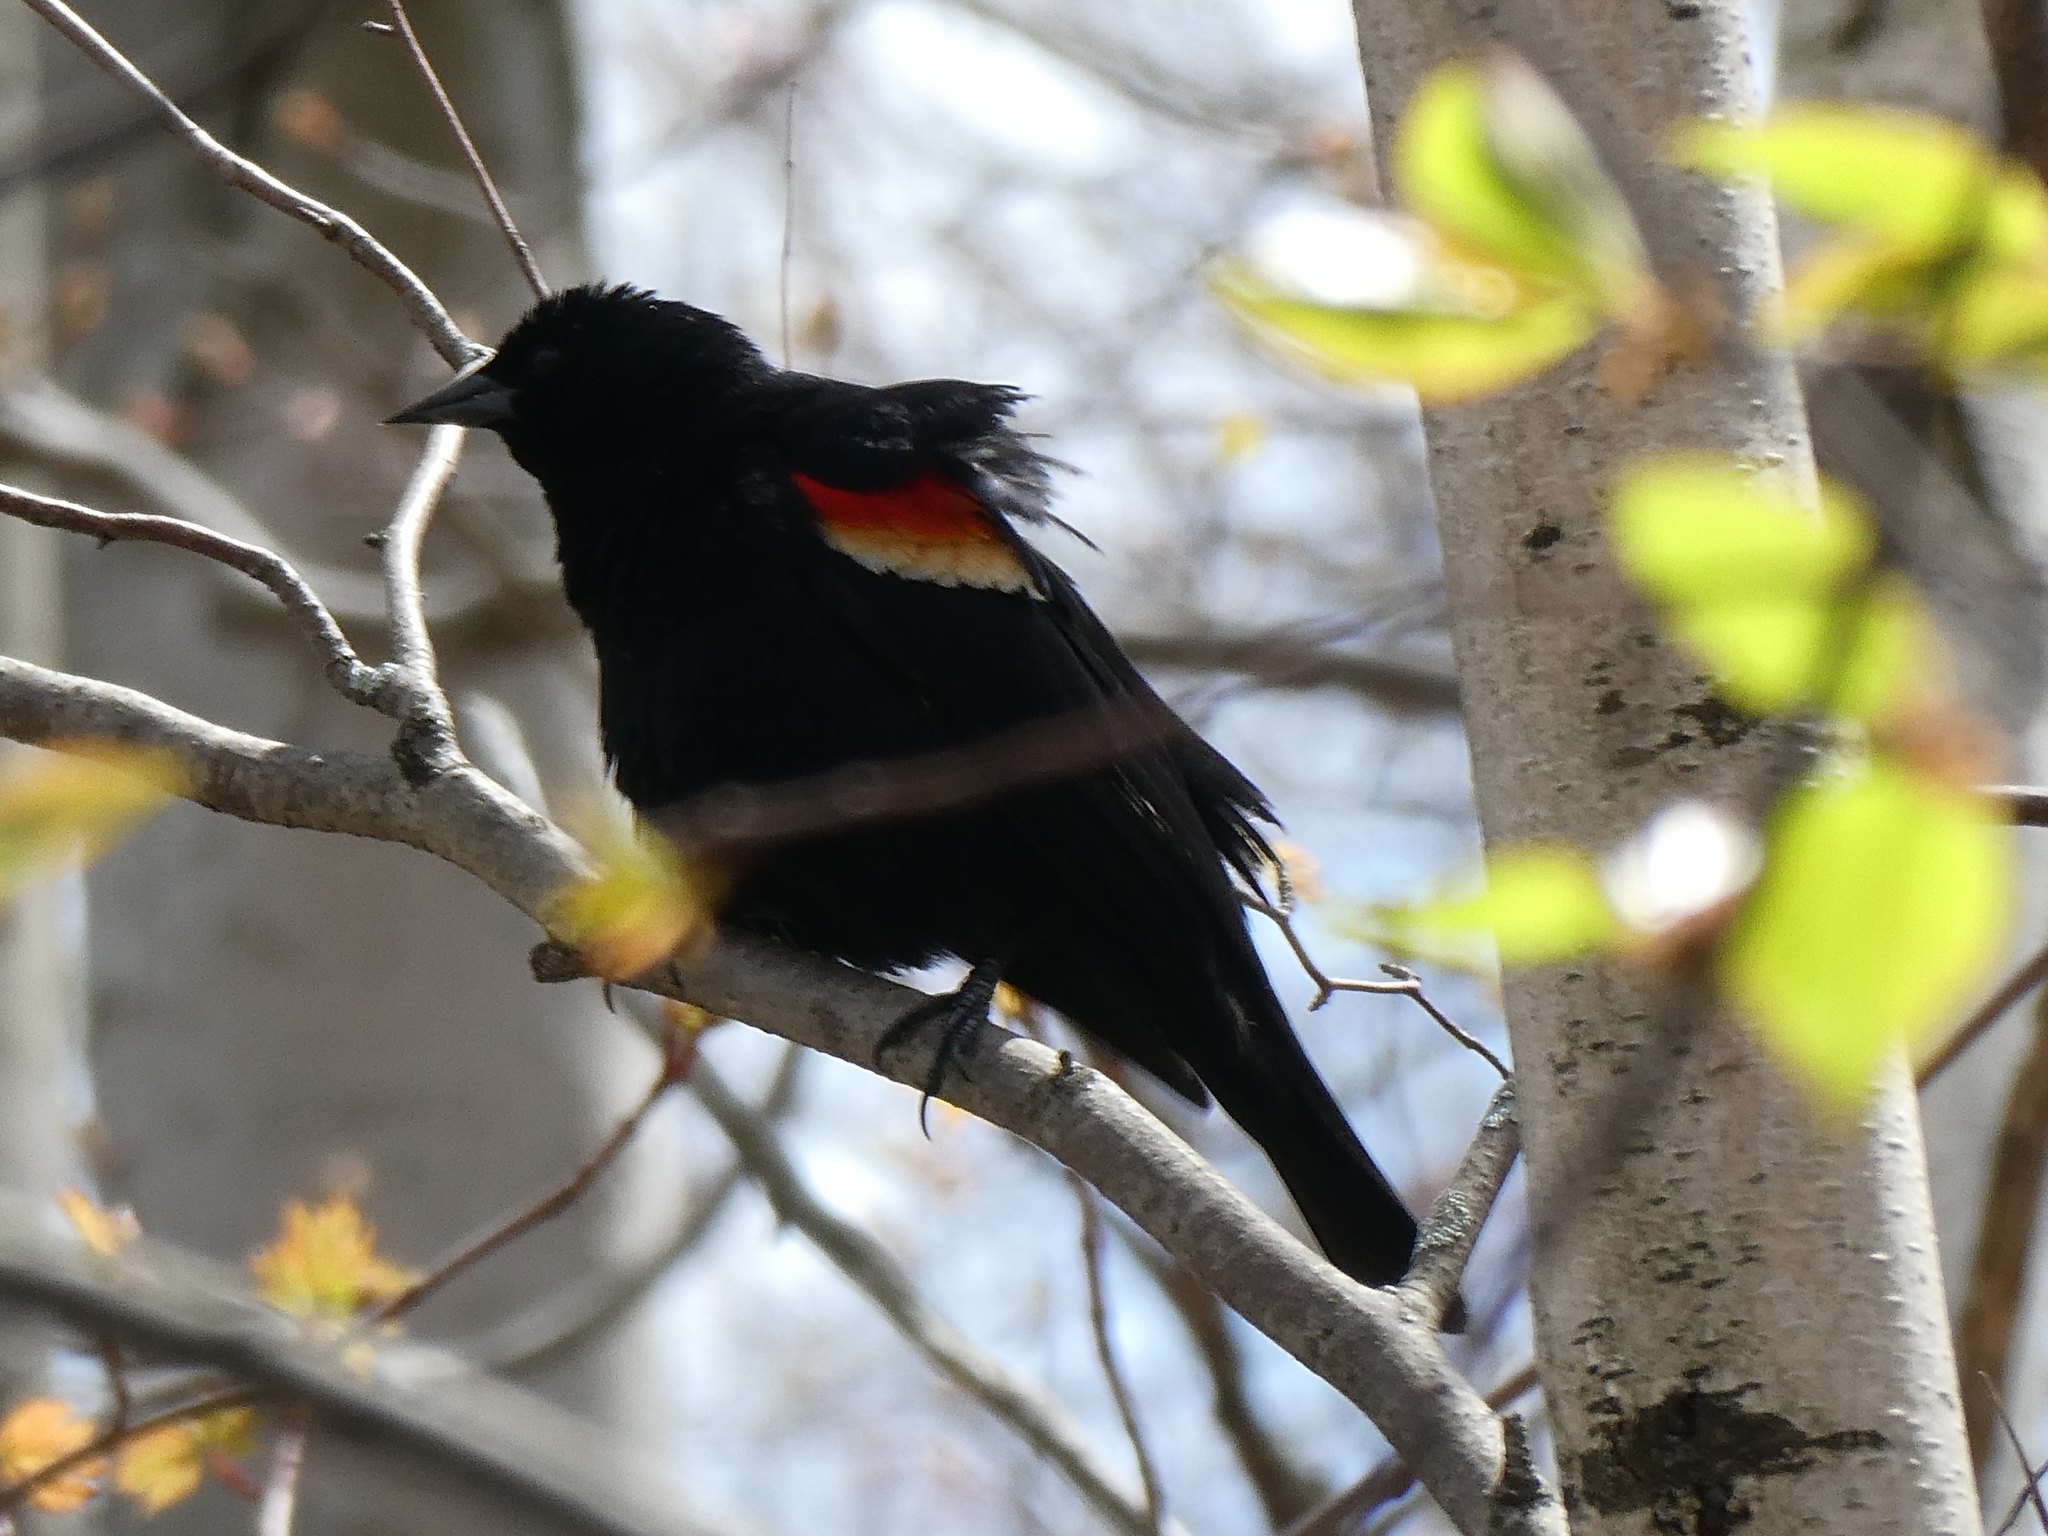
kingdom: Animalia
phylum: Chordata
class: Aves
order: Passeriformes
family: Icteridae
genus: Agelaius
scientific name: Agelaius phoeniceus
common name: Red-winged blackbird
